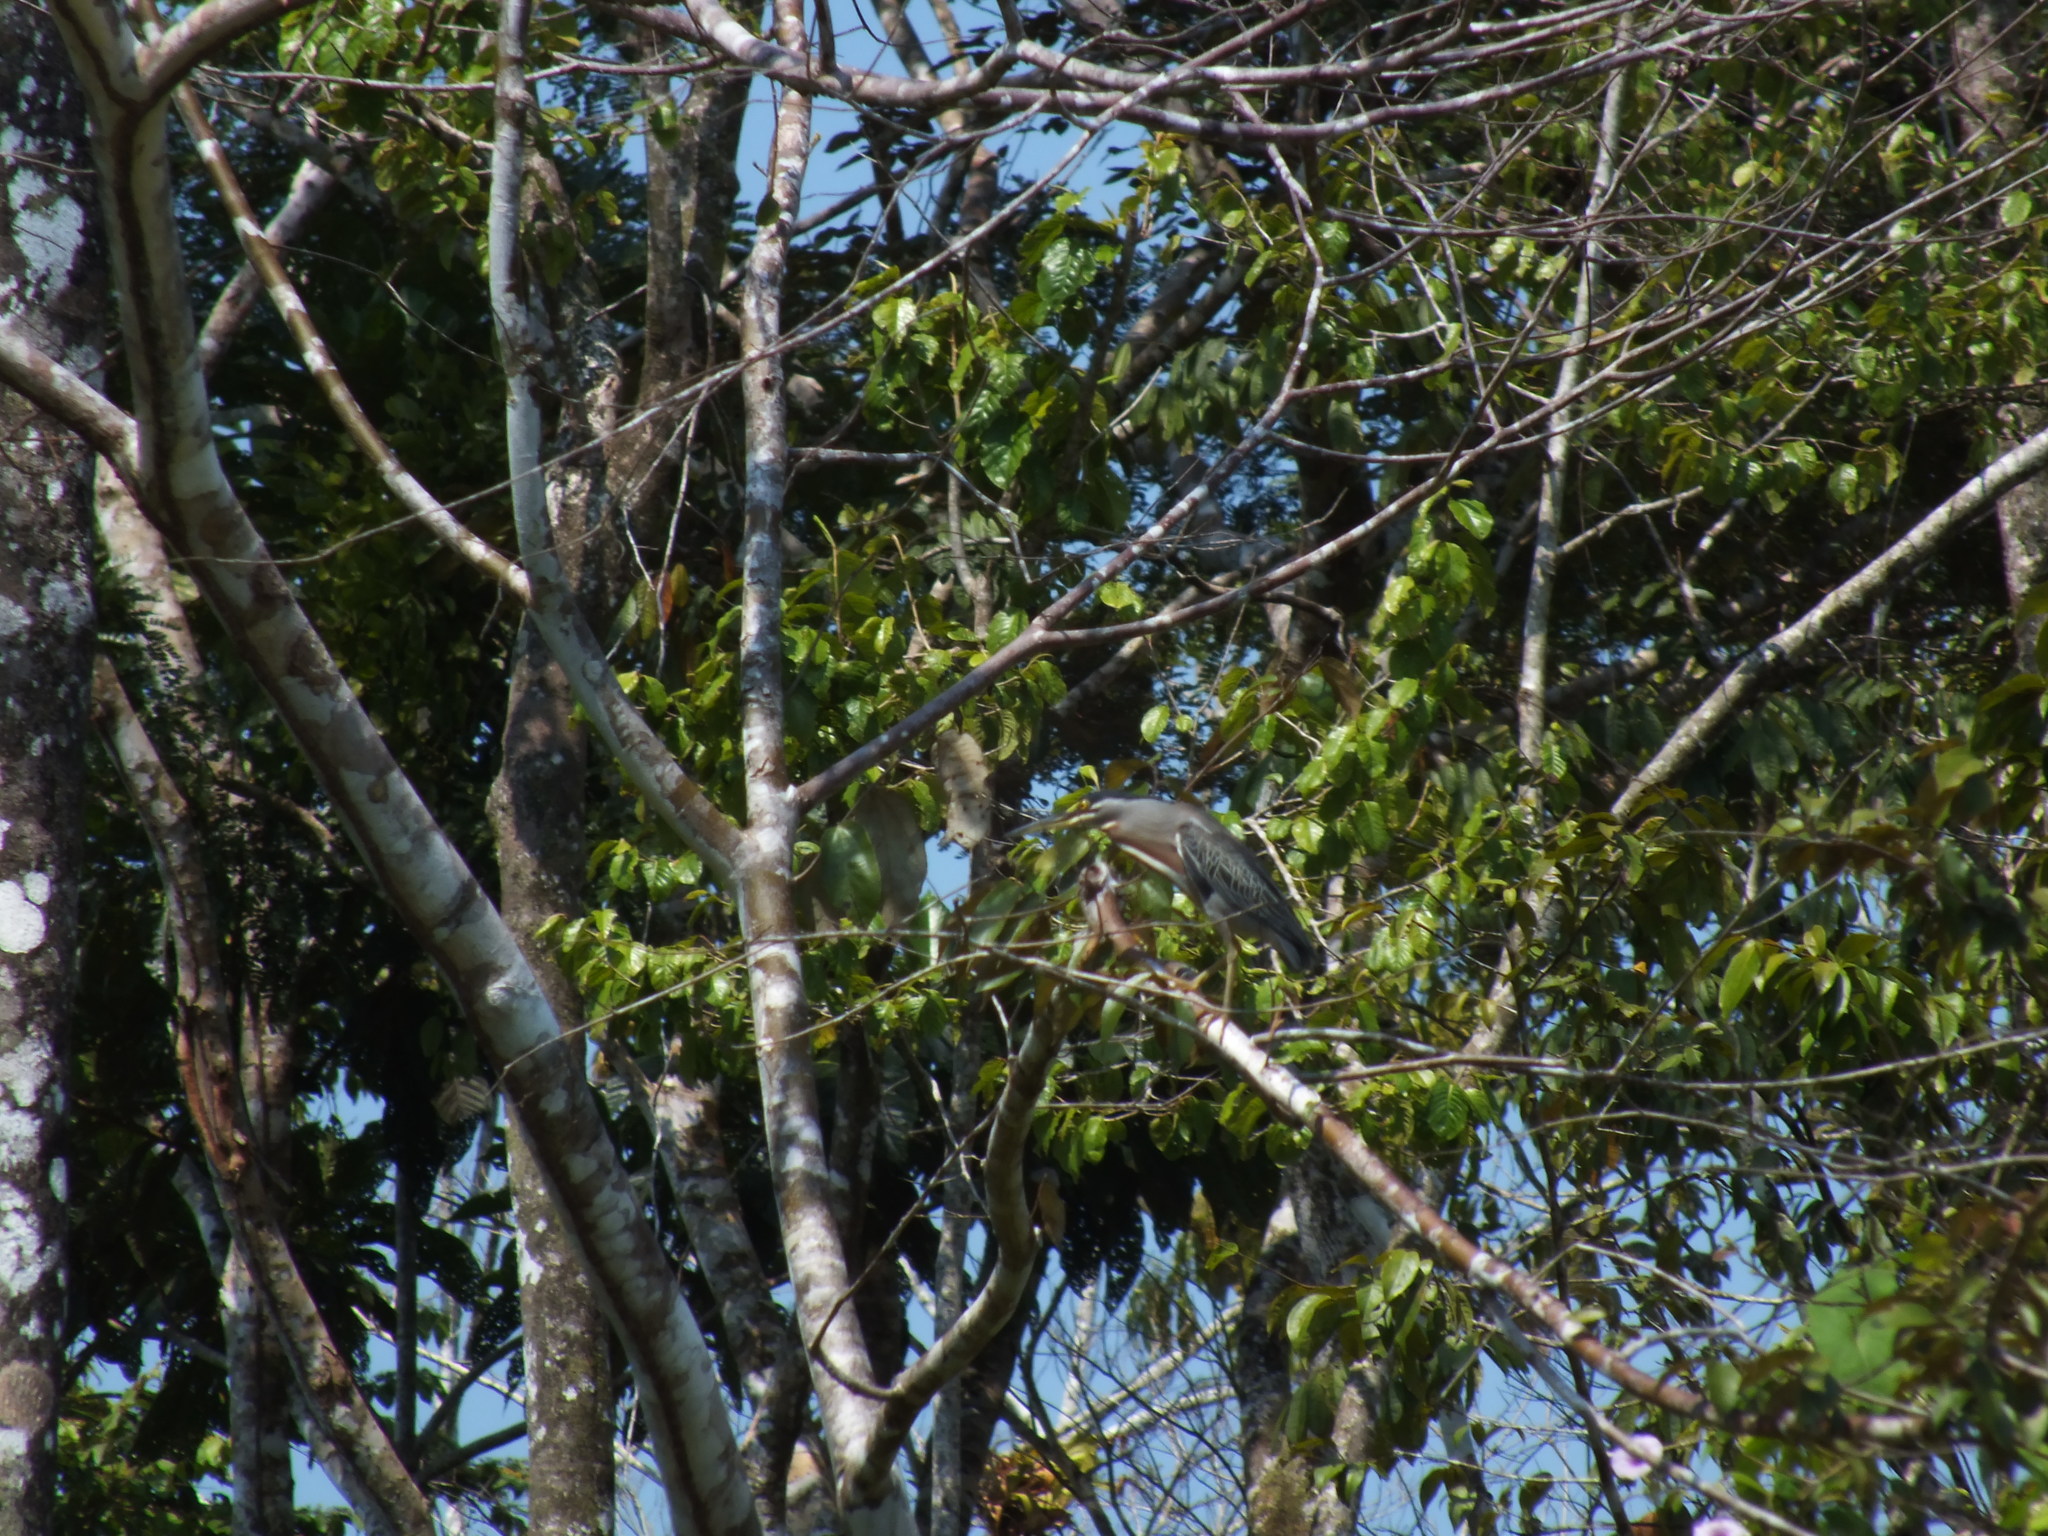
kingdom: Animalia
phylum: Chordata
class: Aves
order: Pelecaniformes
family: Ardeidae
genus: Butorides
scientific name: Butorides striata
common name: Striated heron
